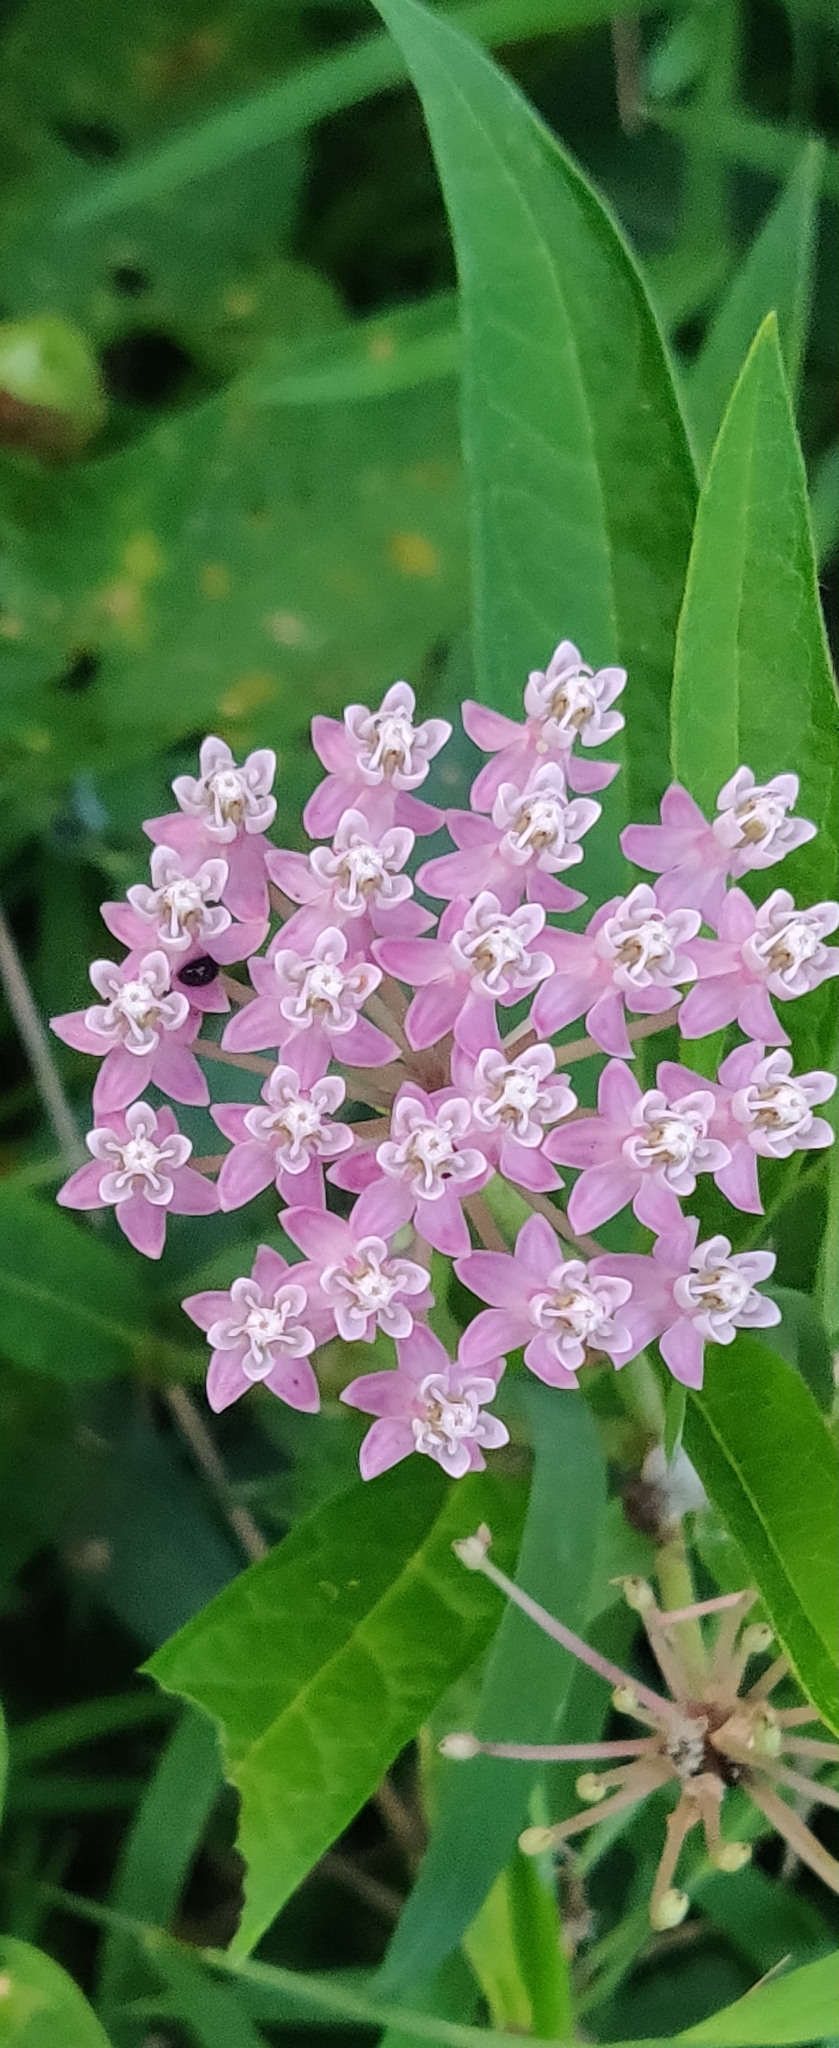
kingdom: Plantae
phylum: Tracheophyta
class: Magnoliopsida
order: Gentianales
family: Apocynaceae
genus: Asclepias
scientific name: Asclepias incarnata
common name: Swamp milkweed
